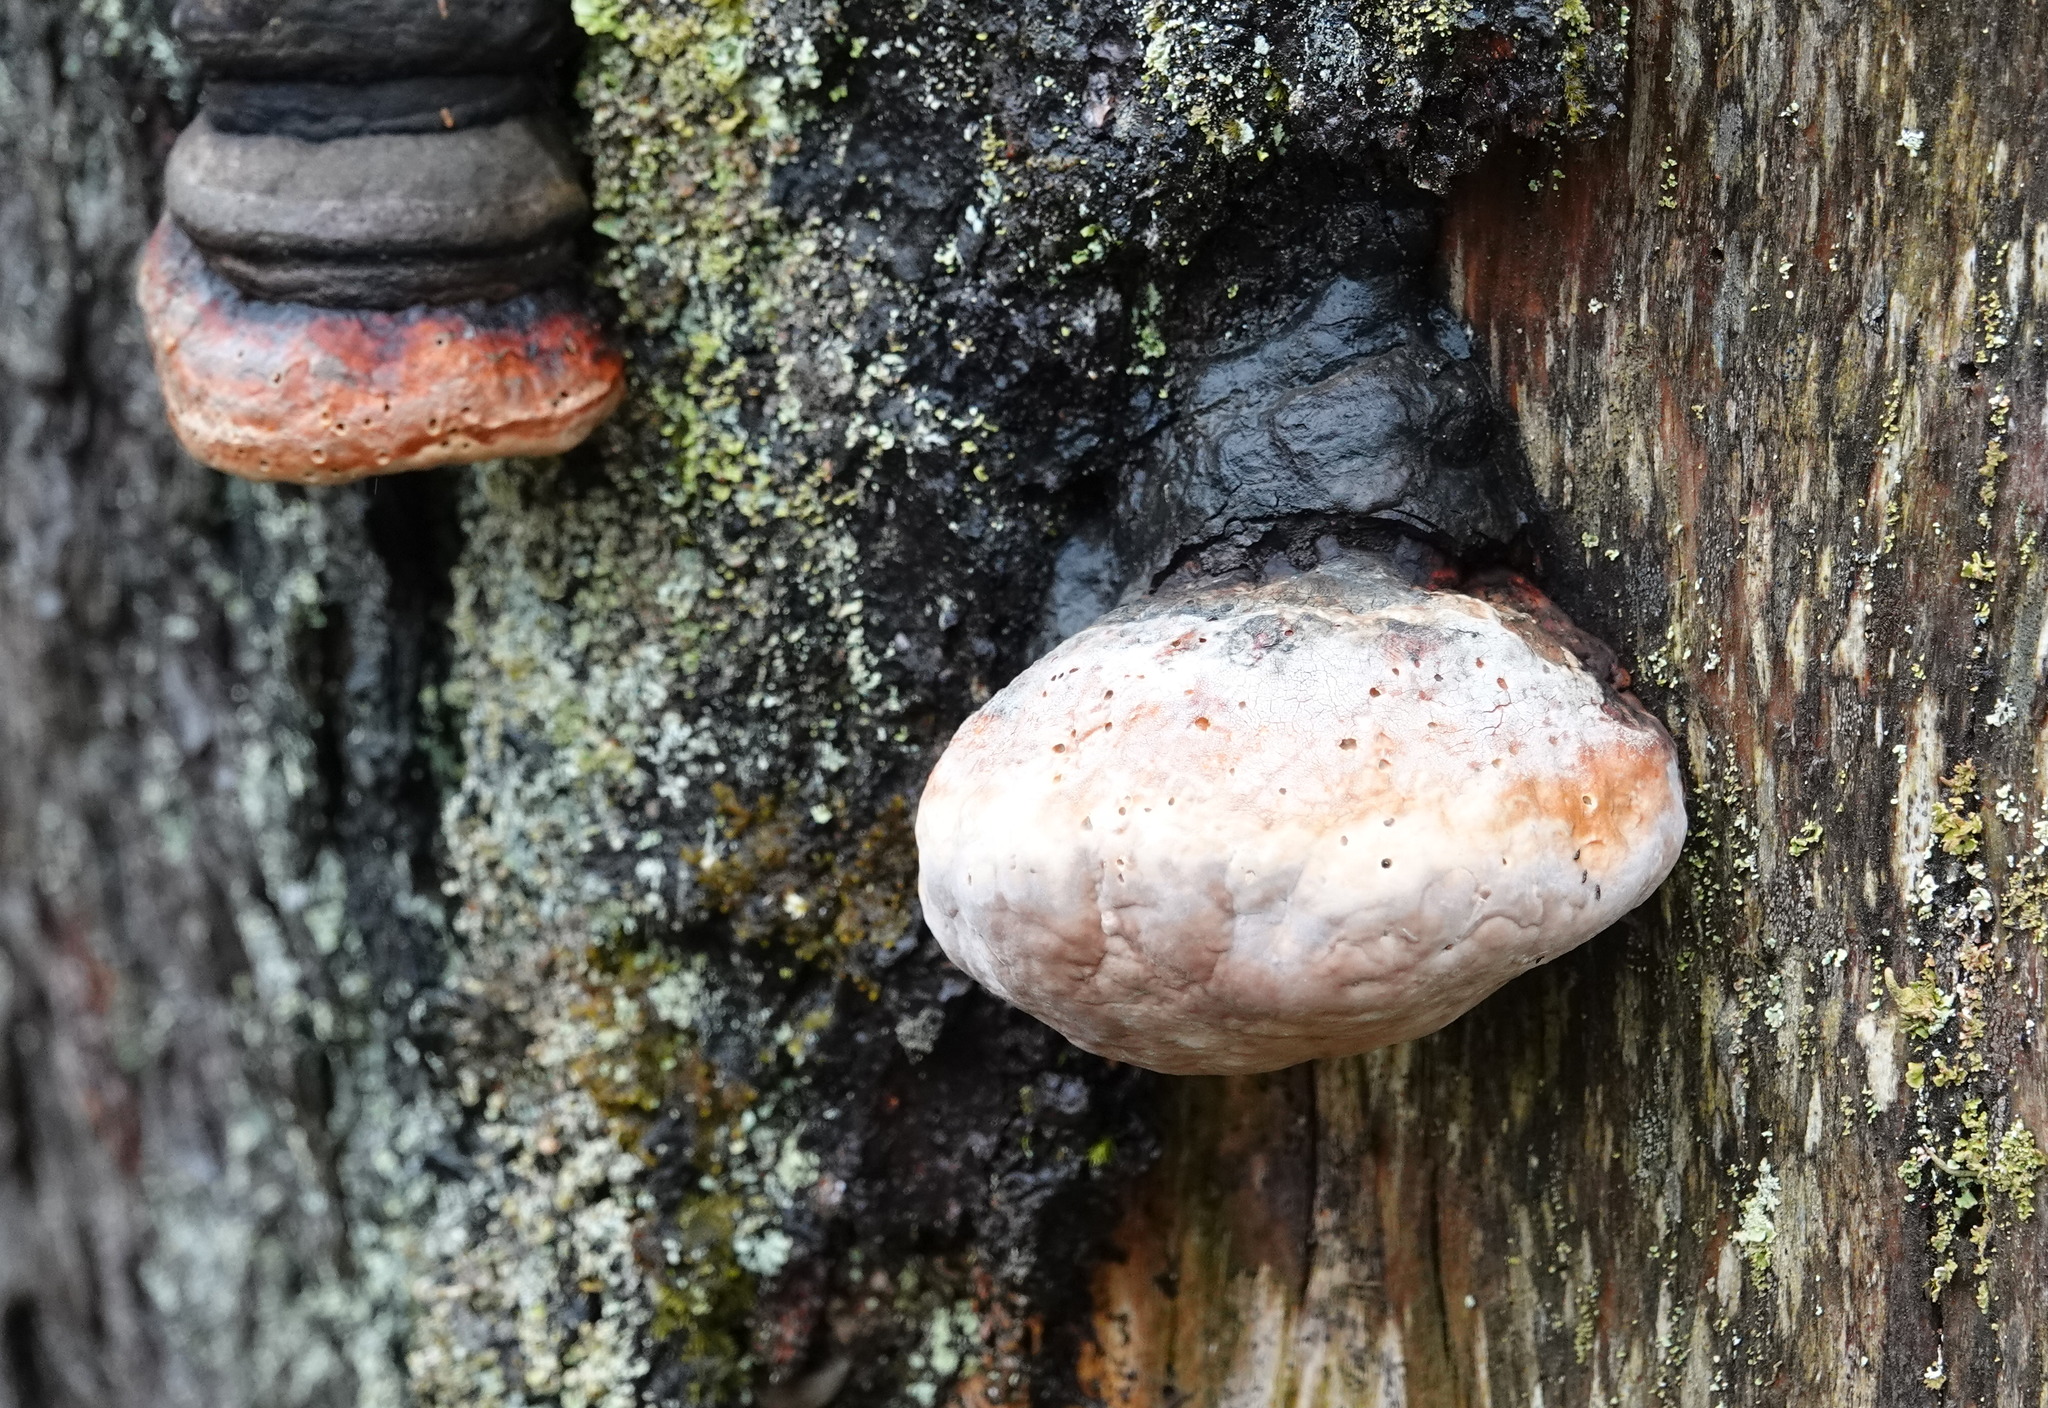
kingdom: Fungi
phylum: Basidiomycota
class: Agaricomycetes
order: Polyporales
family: Fomitopsidaceae
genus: Fomitopsis
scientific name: Fomitopsis pinicola
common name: Red-belted bracket
